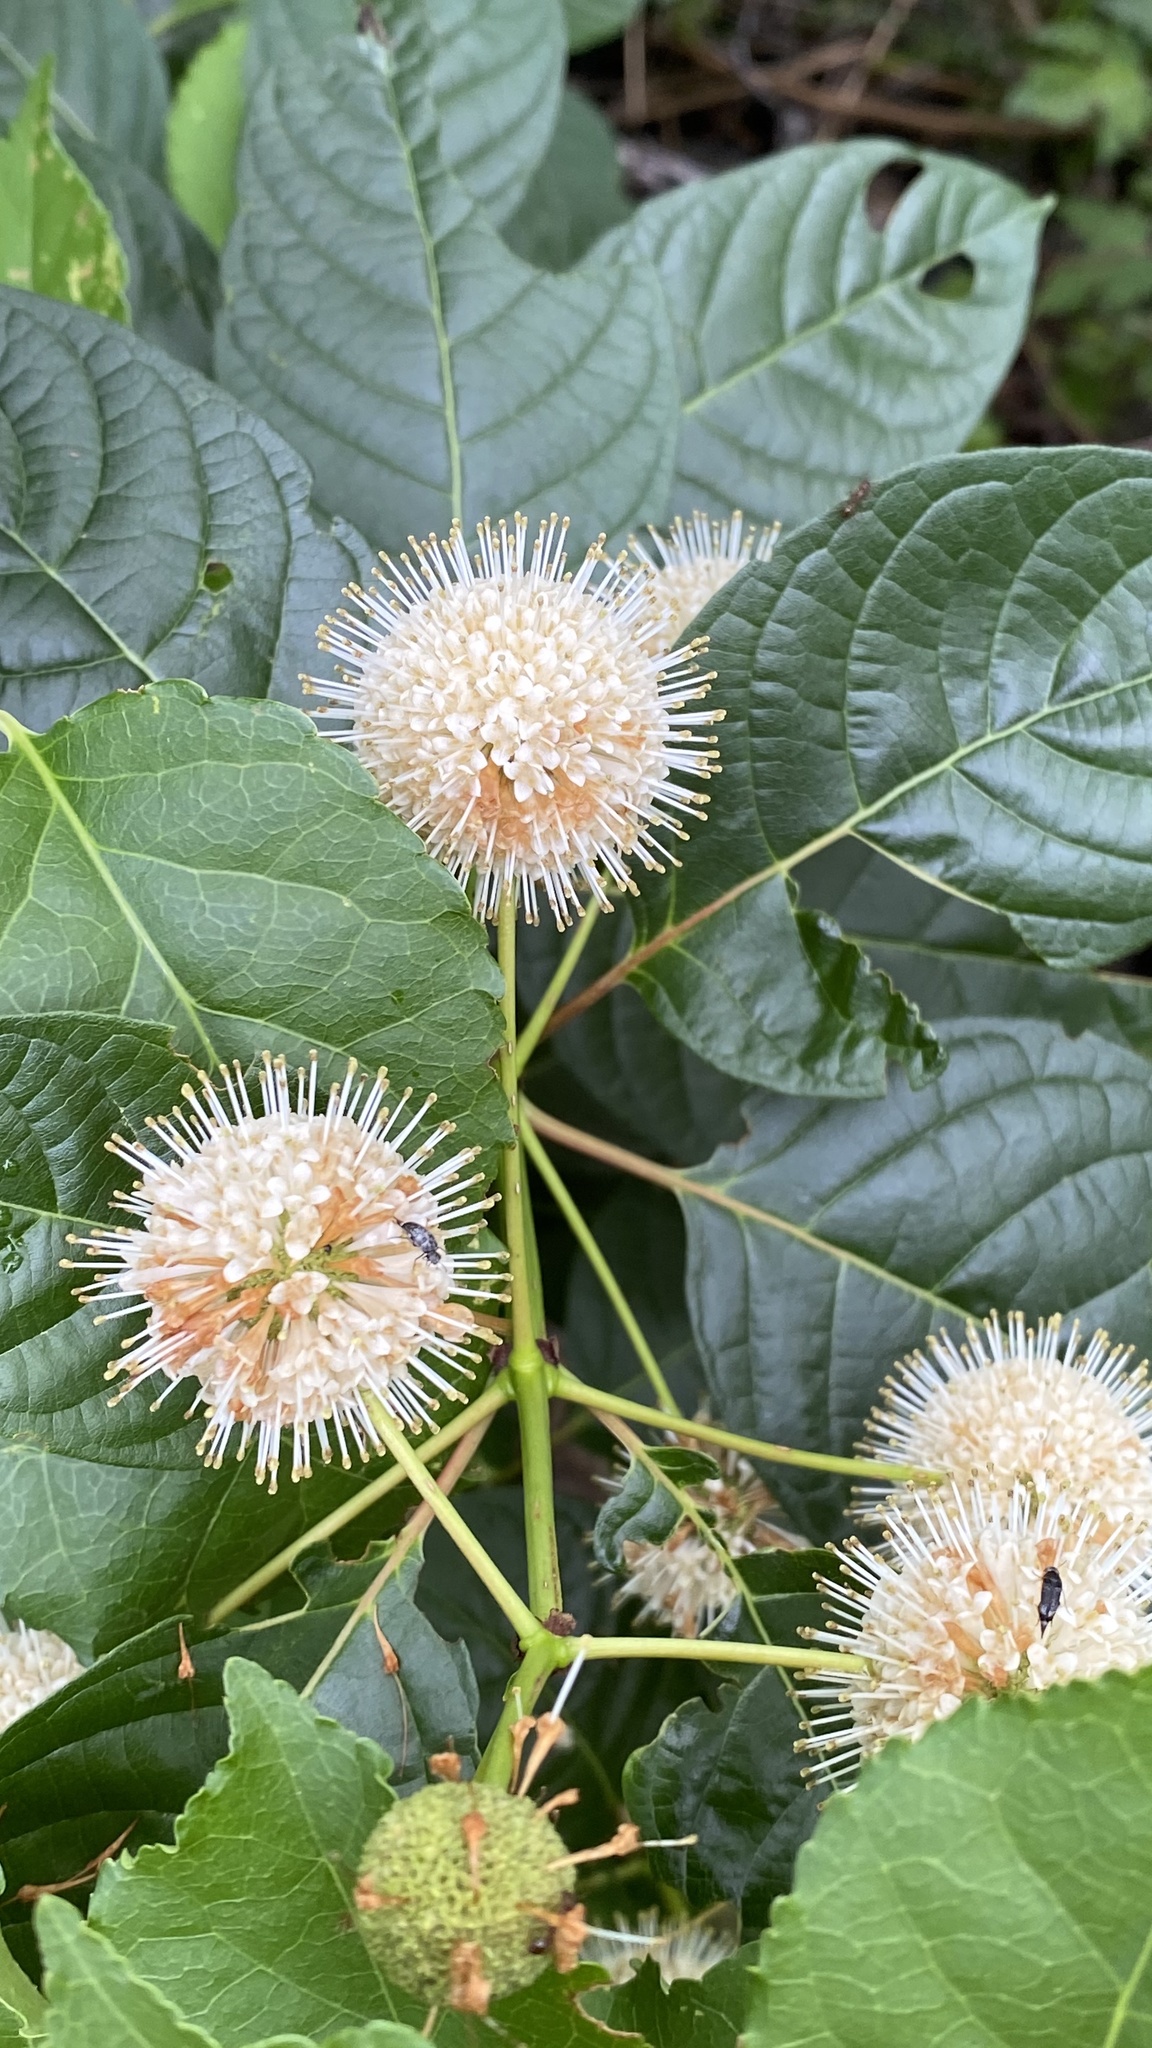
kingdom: Plantae
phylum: Tracheophyta
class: Magnoliopsida
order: Gentianales
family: Rubiaceae
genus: Cephalanthus
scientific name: Cephalanthus occidentalis
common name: Button-willow
